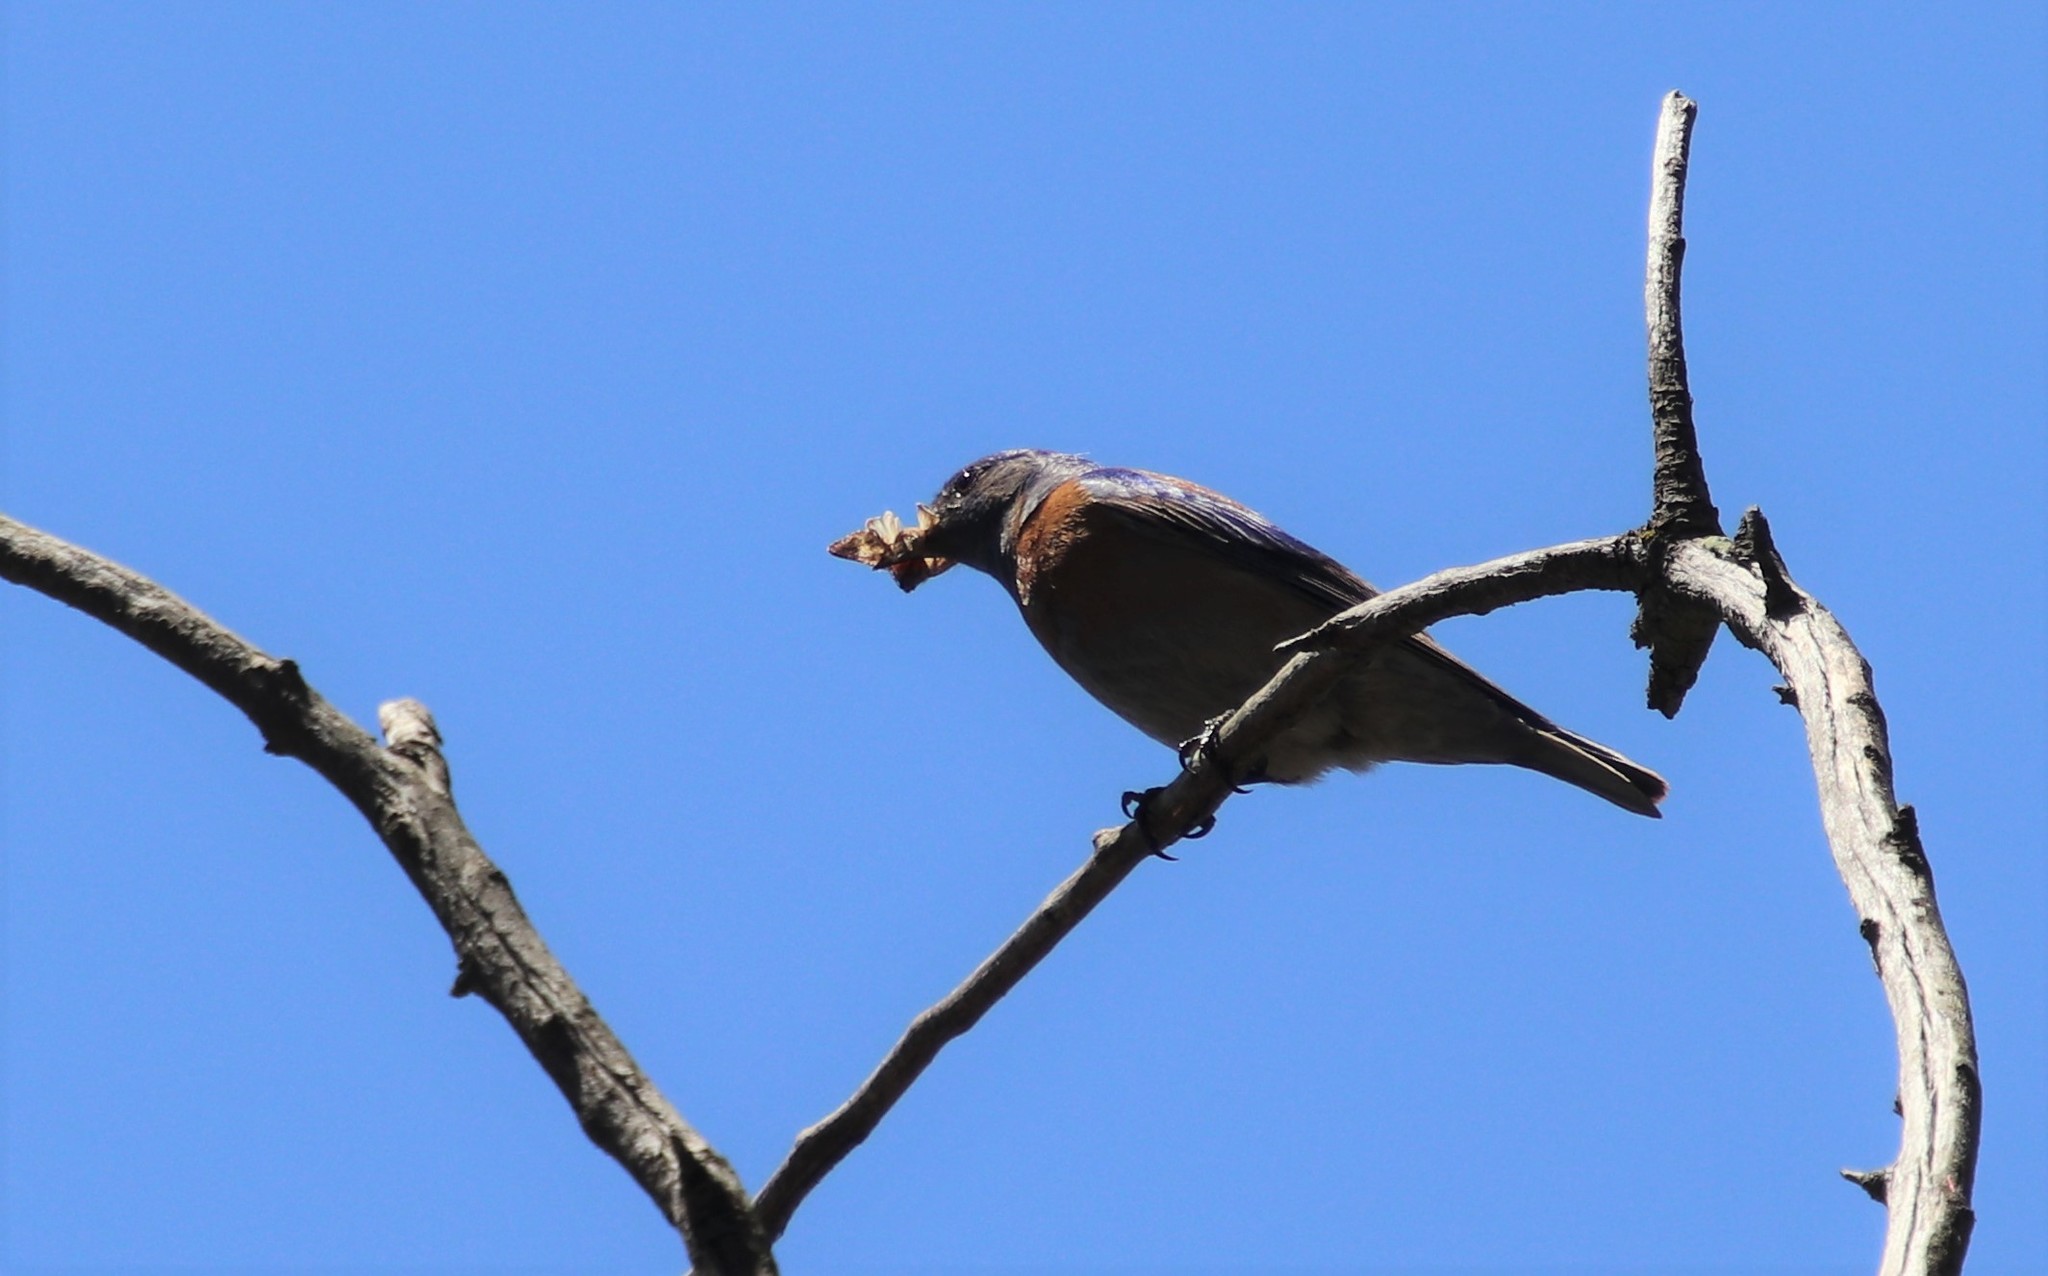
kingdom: Animalia
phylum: Chordata
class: Aves
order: Passeriformes
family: Turdidae
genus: Sialia
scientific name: Sialia mexicana
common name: Western bluebird
